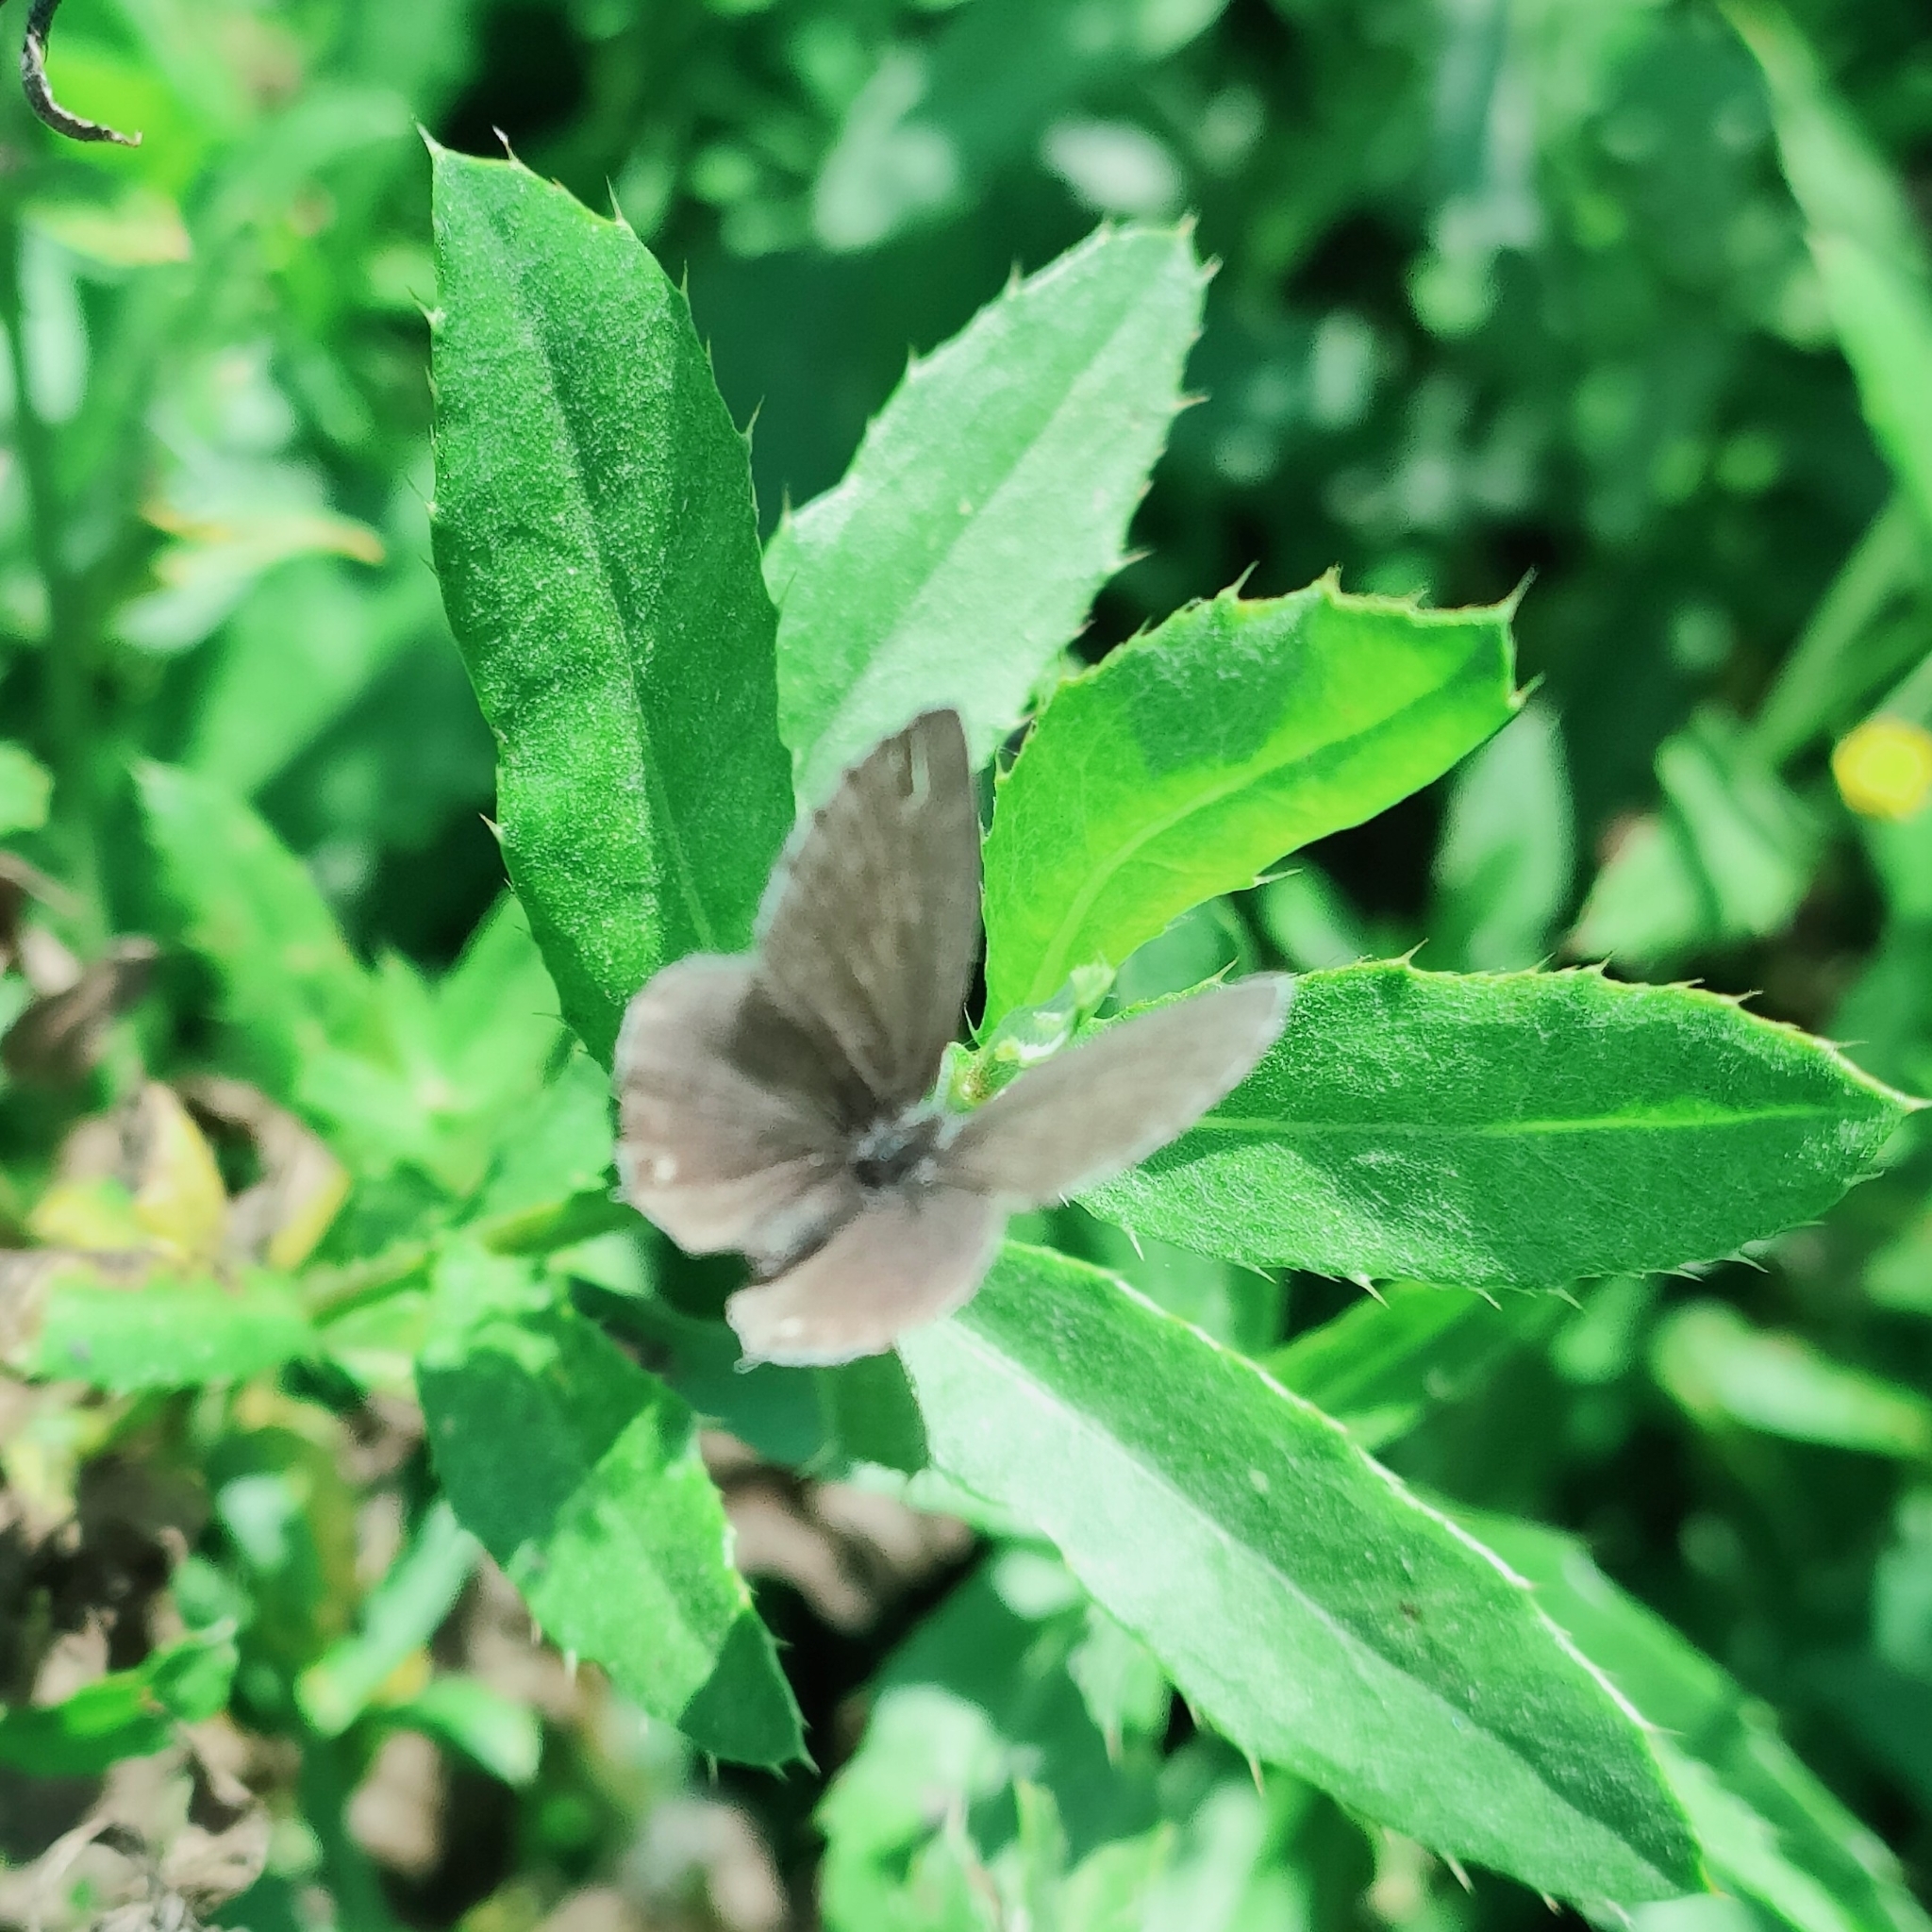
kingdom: Animalia
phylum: Arthropoda
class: Insecta
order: Lepidoptera
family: Lycaenidae
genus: Elkalyce
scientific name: Elkalyce argiades
